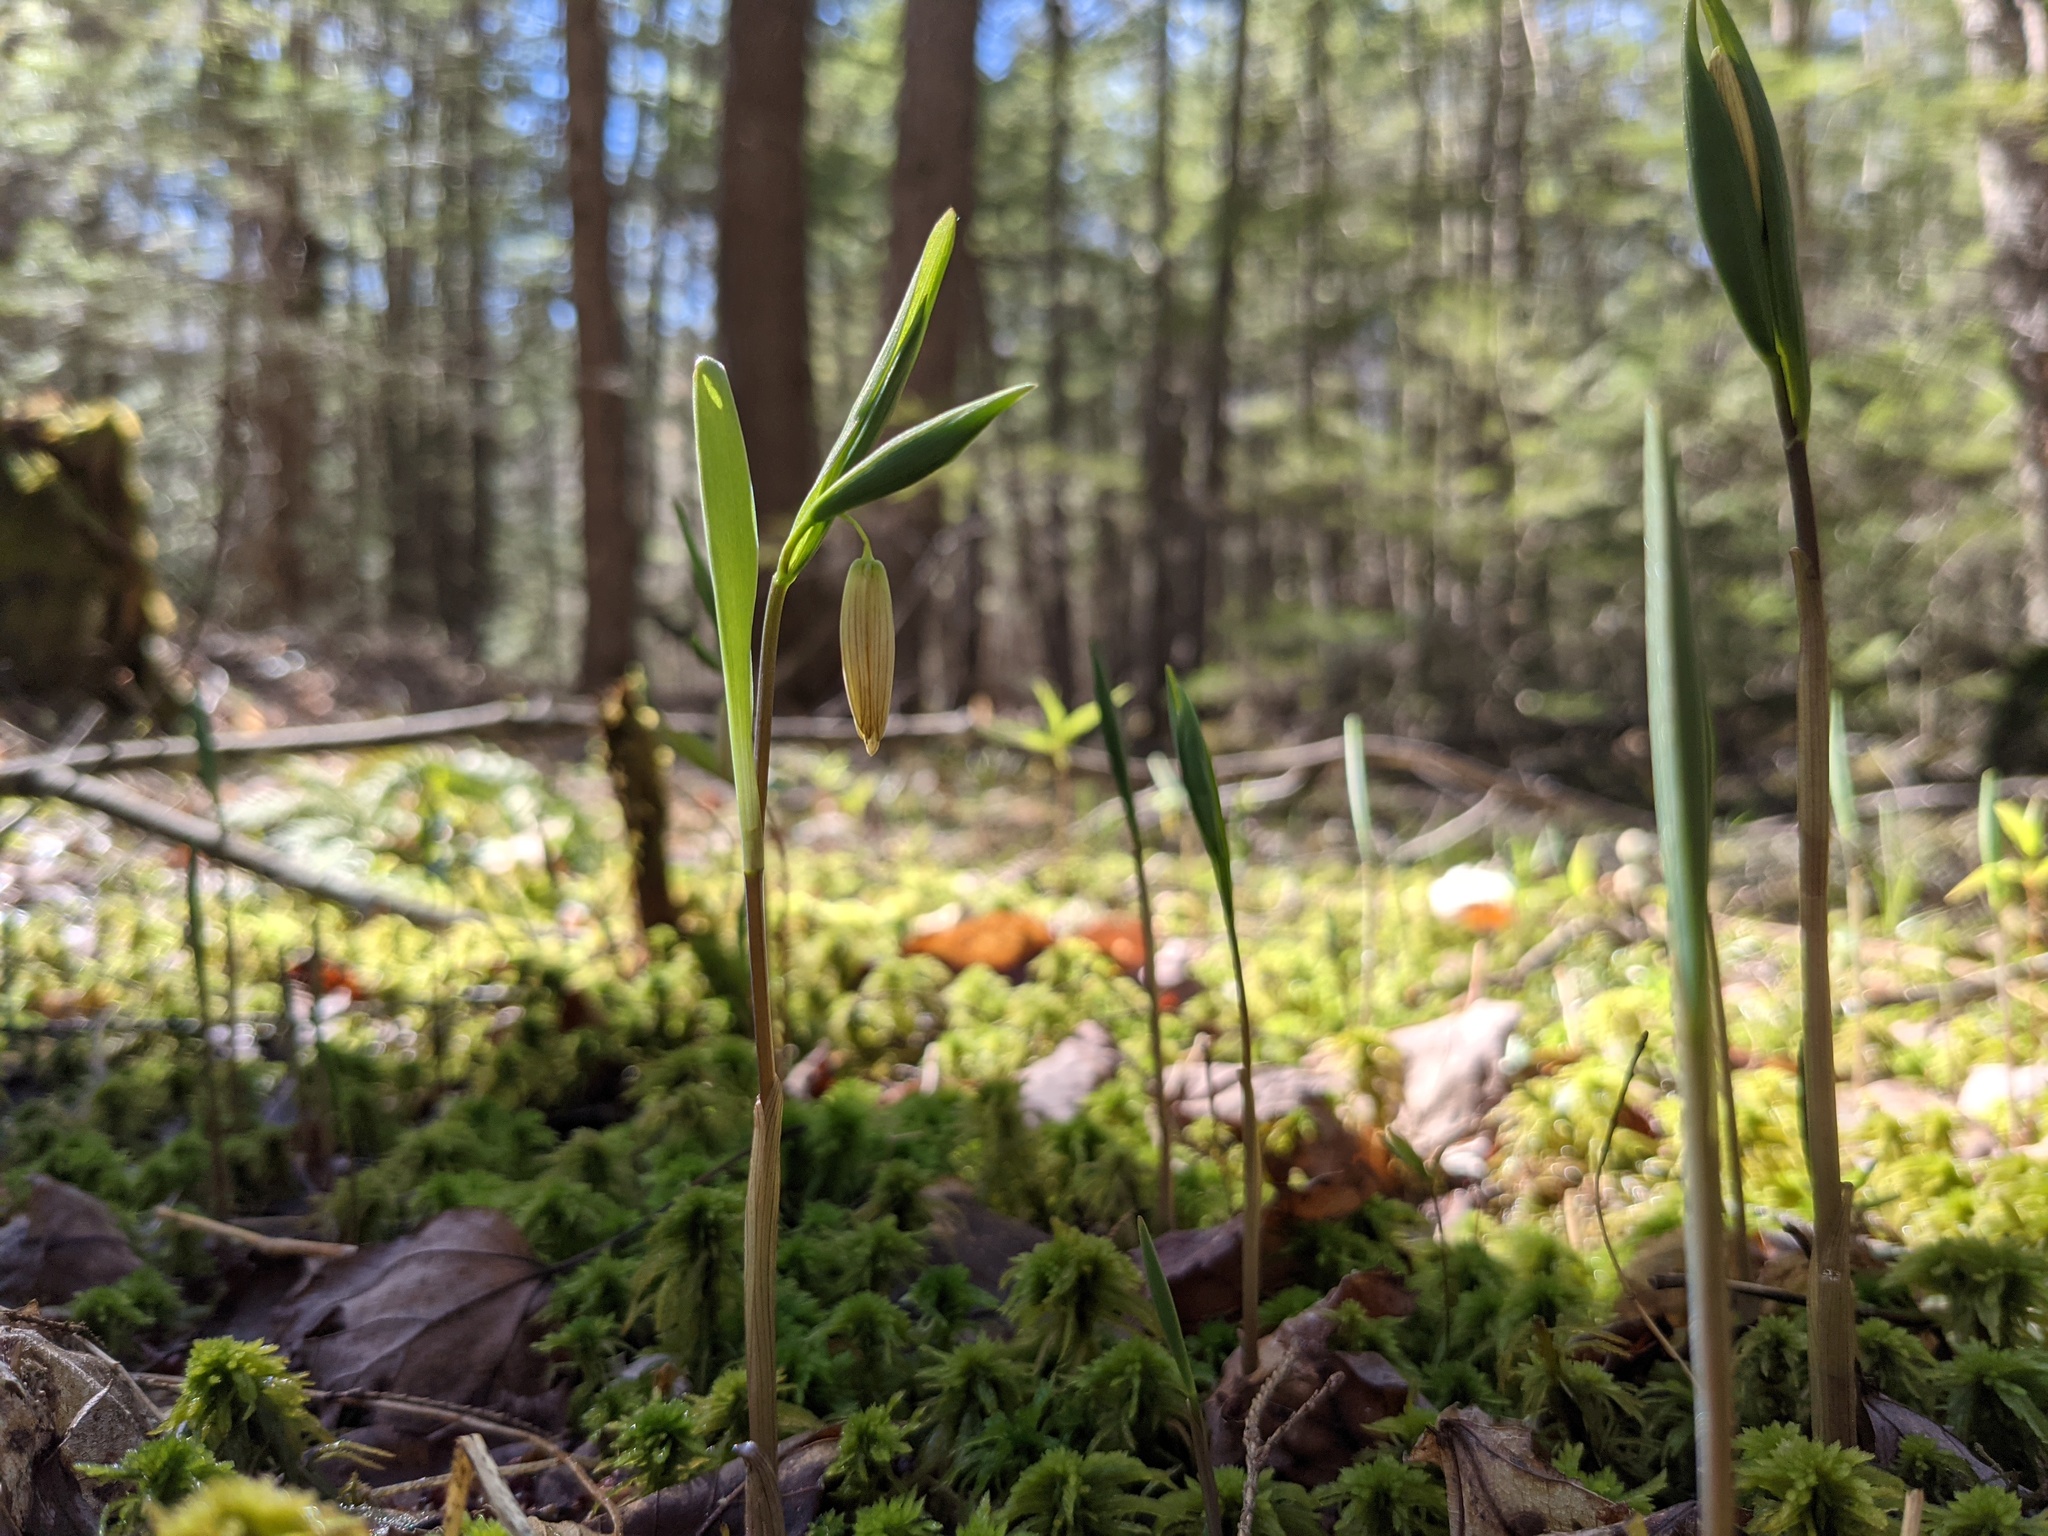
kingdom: Plantae
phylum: Tracheophyta
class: Liliopsida
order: Liliales
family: Colchicaceae
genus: Uvularia
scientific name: Uvularia sessilifolia
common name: Straw-lily
